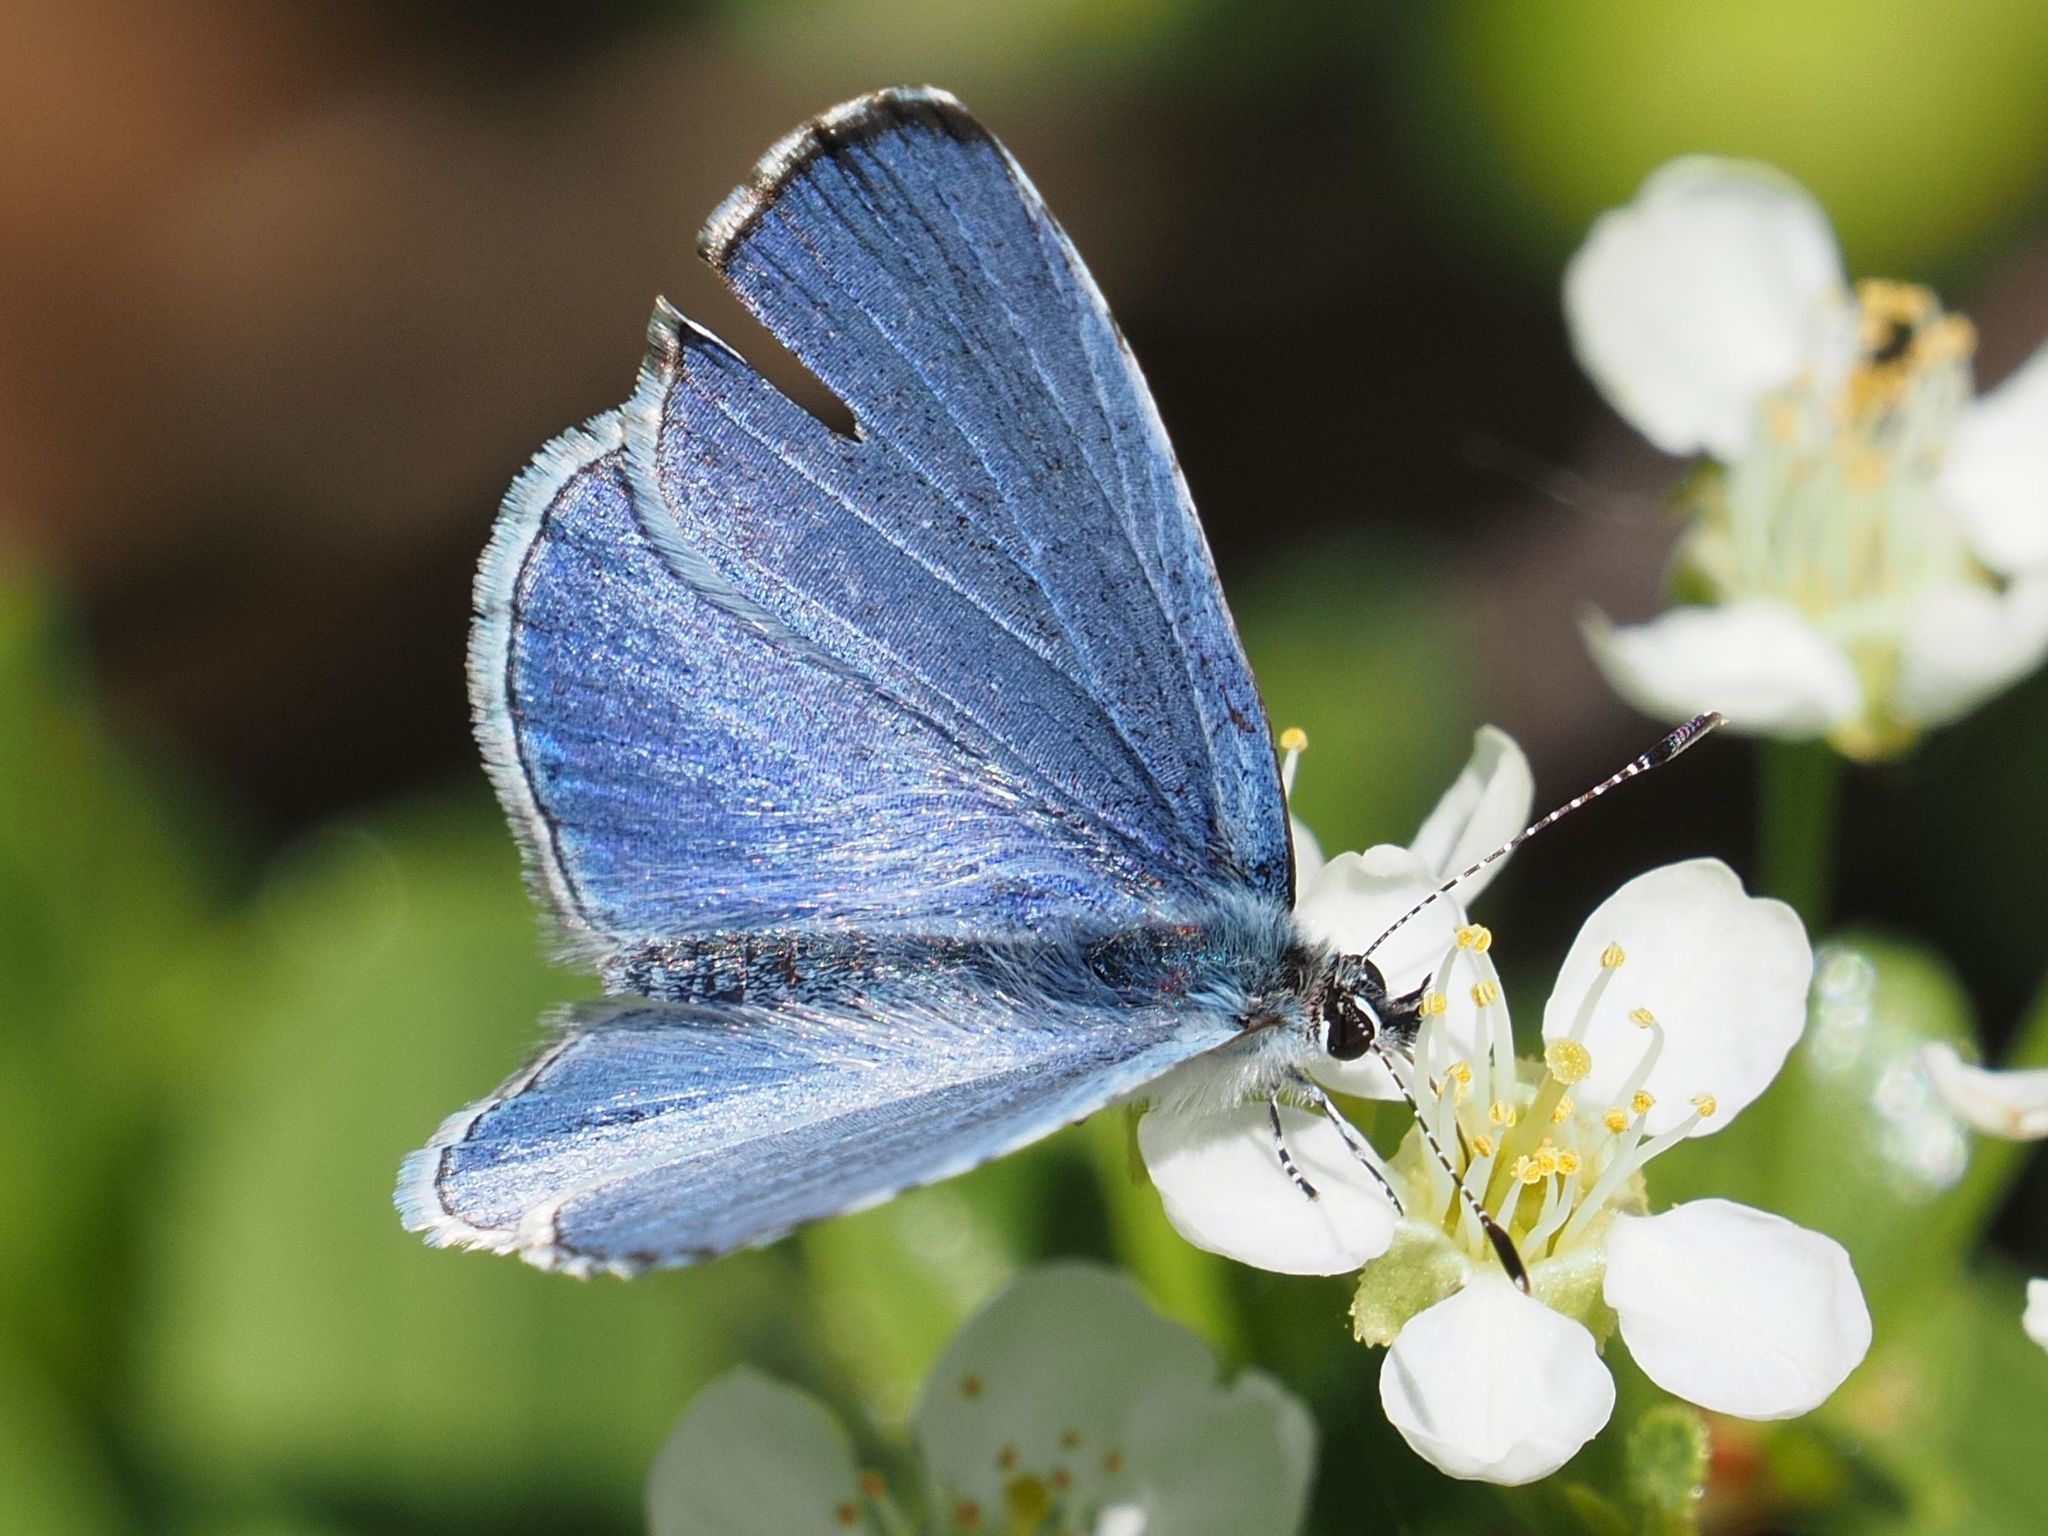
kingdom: Animalia
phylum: Arthropoda
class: Insecta
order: Lepidoptera
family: Lycaenidae
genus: Celastrina
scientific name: Celastrina argiolus
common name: Holly blue
